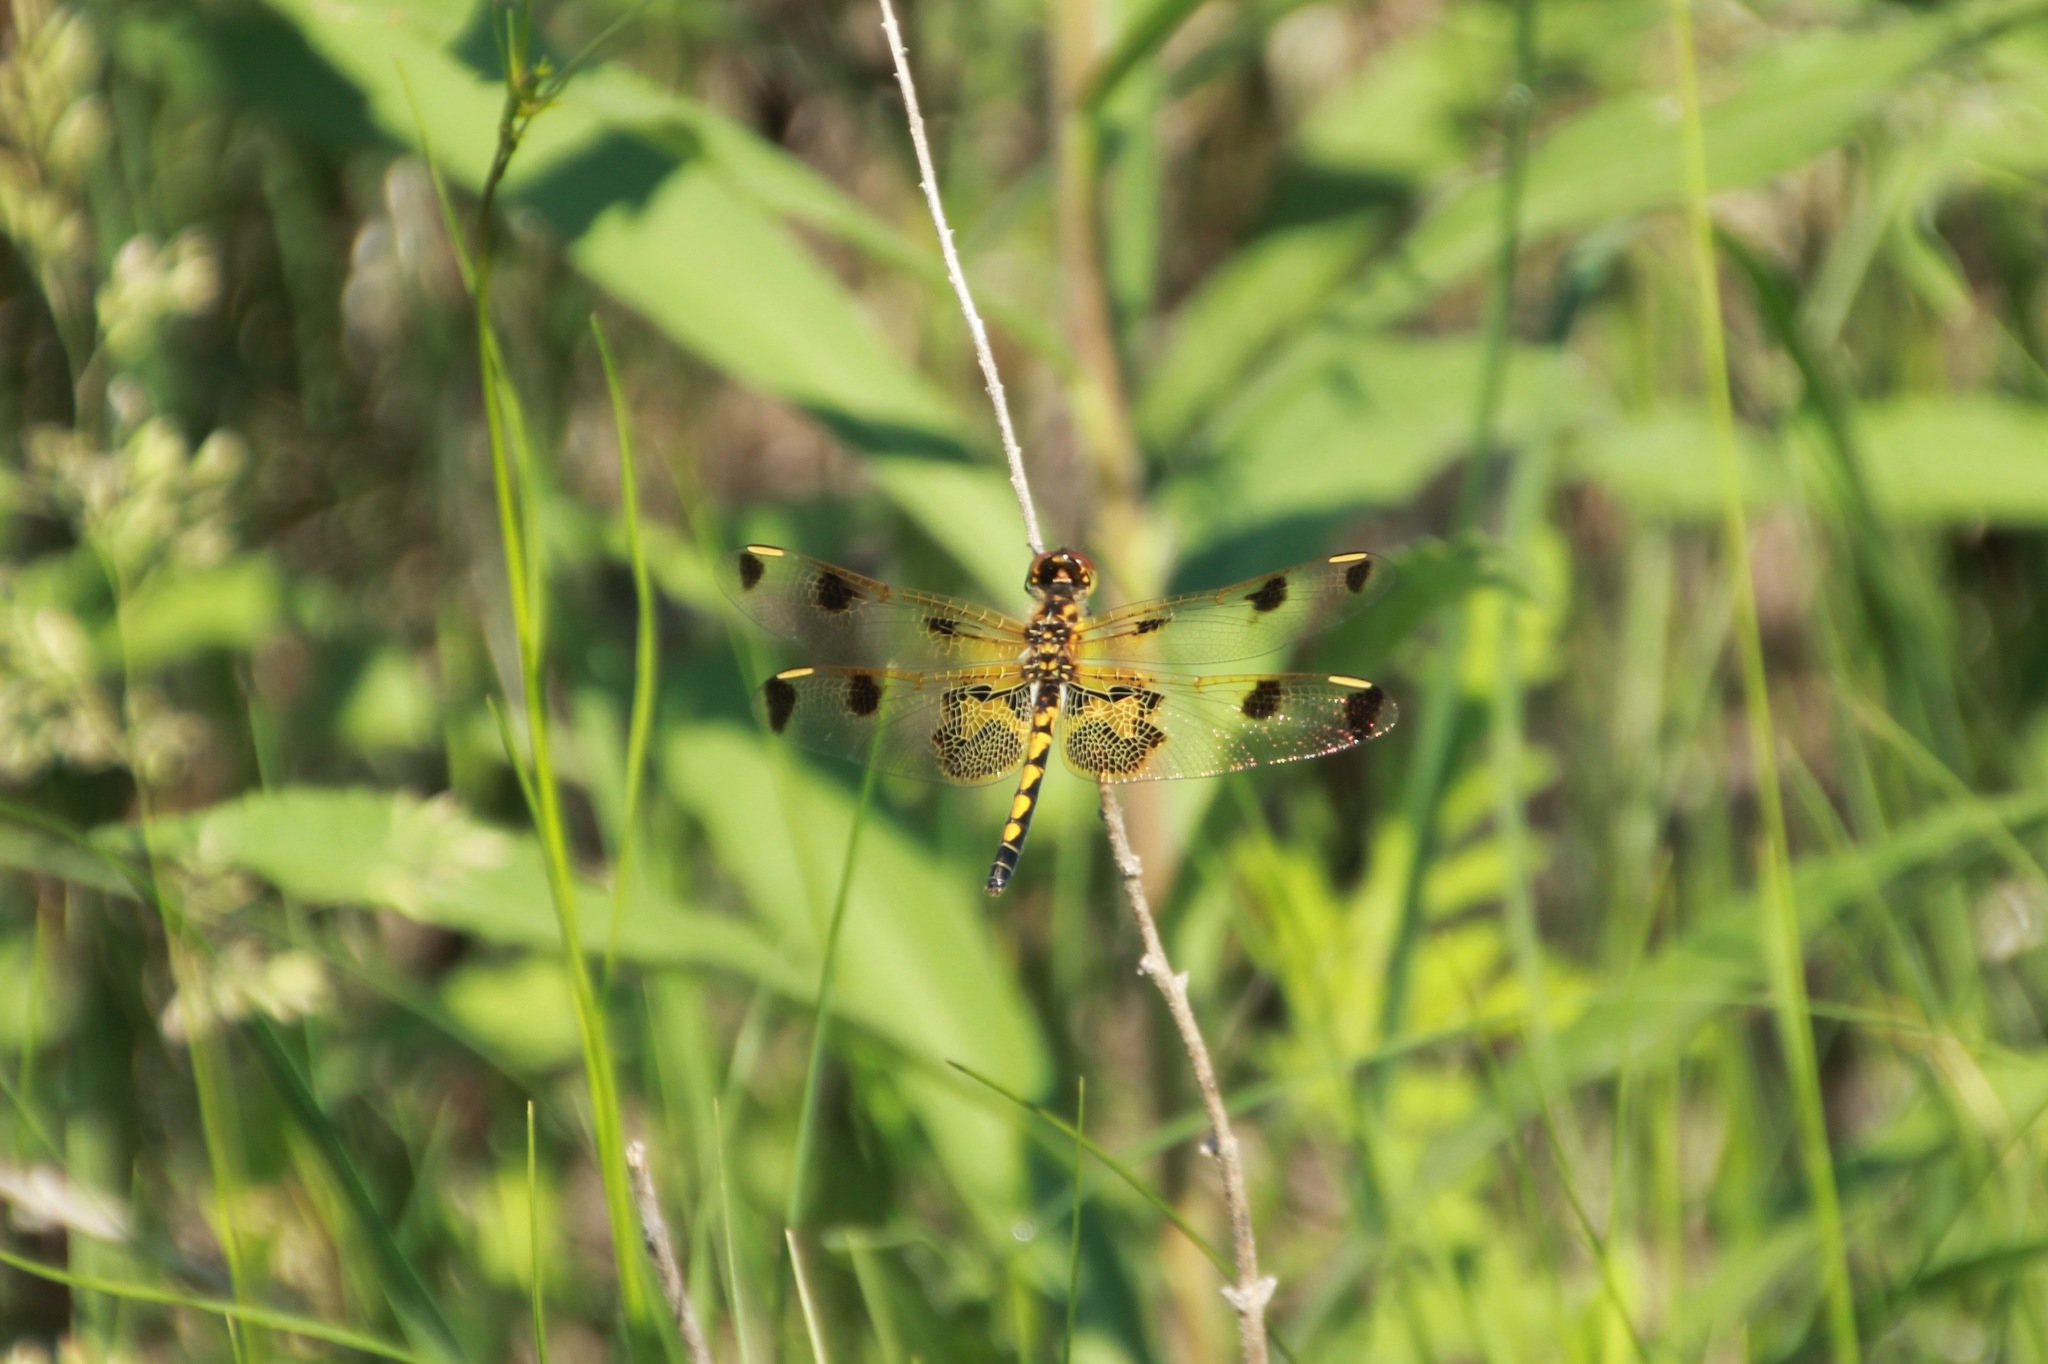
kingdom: Animalia
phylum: Arthropoda
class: Insecta
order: Odonata
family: Libellulidae
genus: Celithemis
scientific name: Celithemis elisa
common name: Calico pennant
